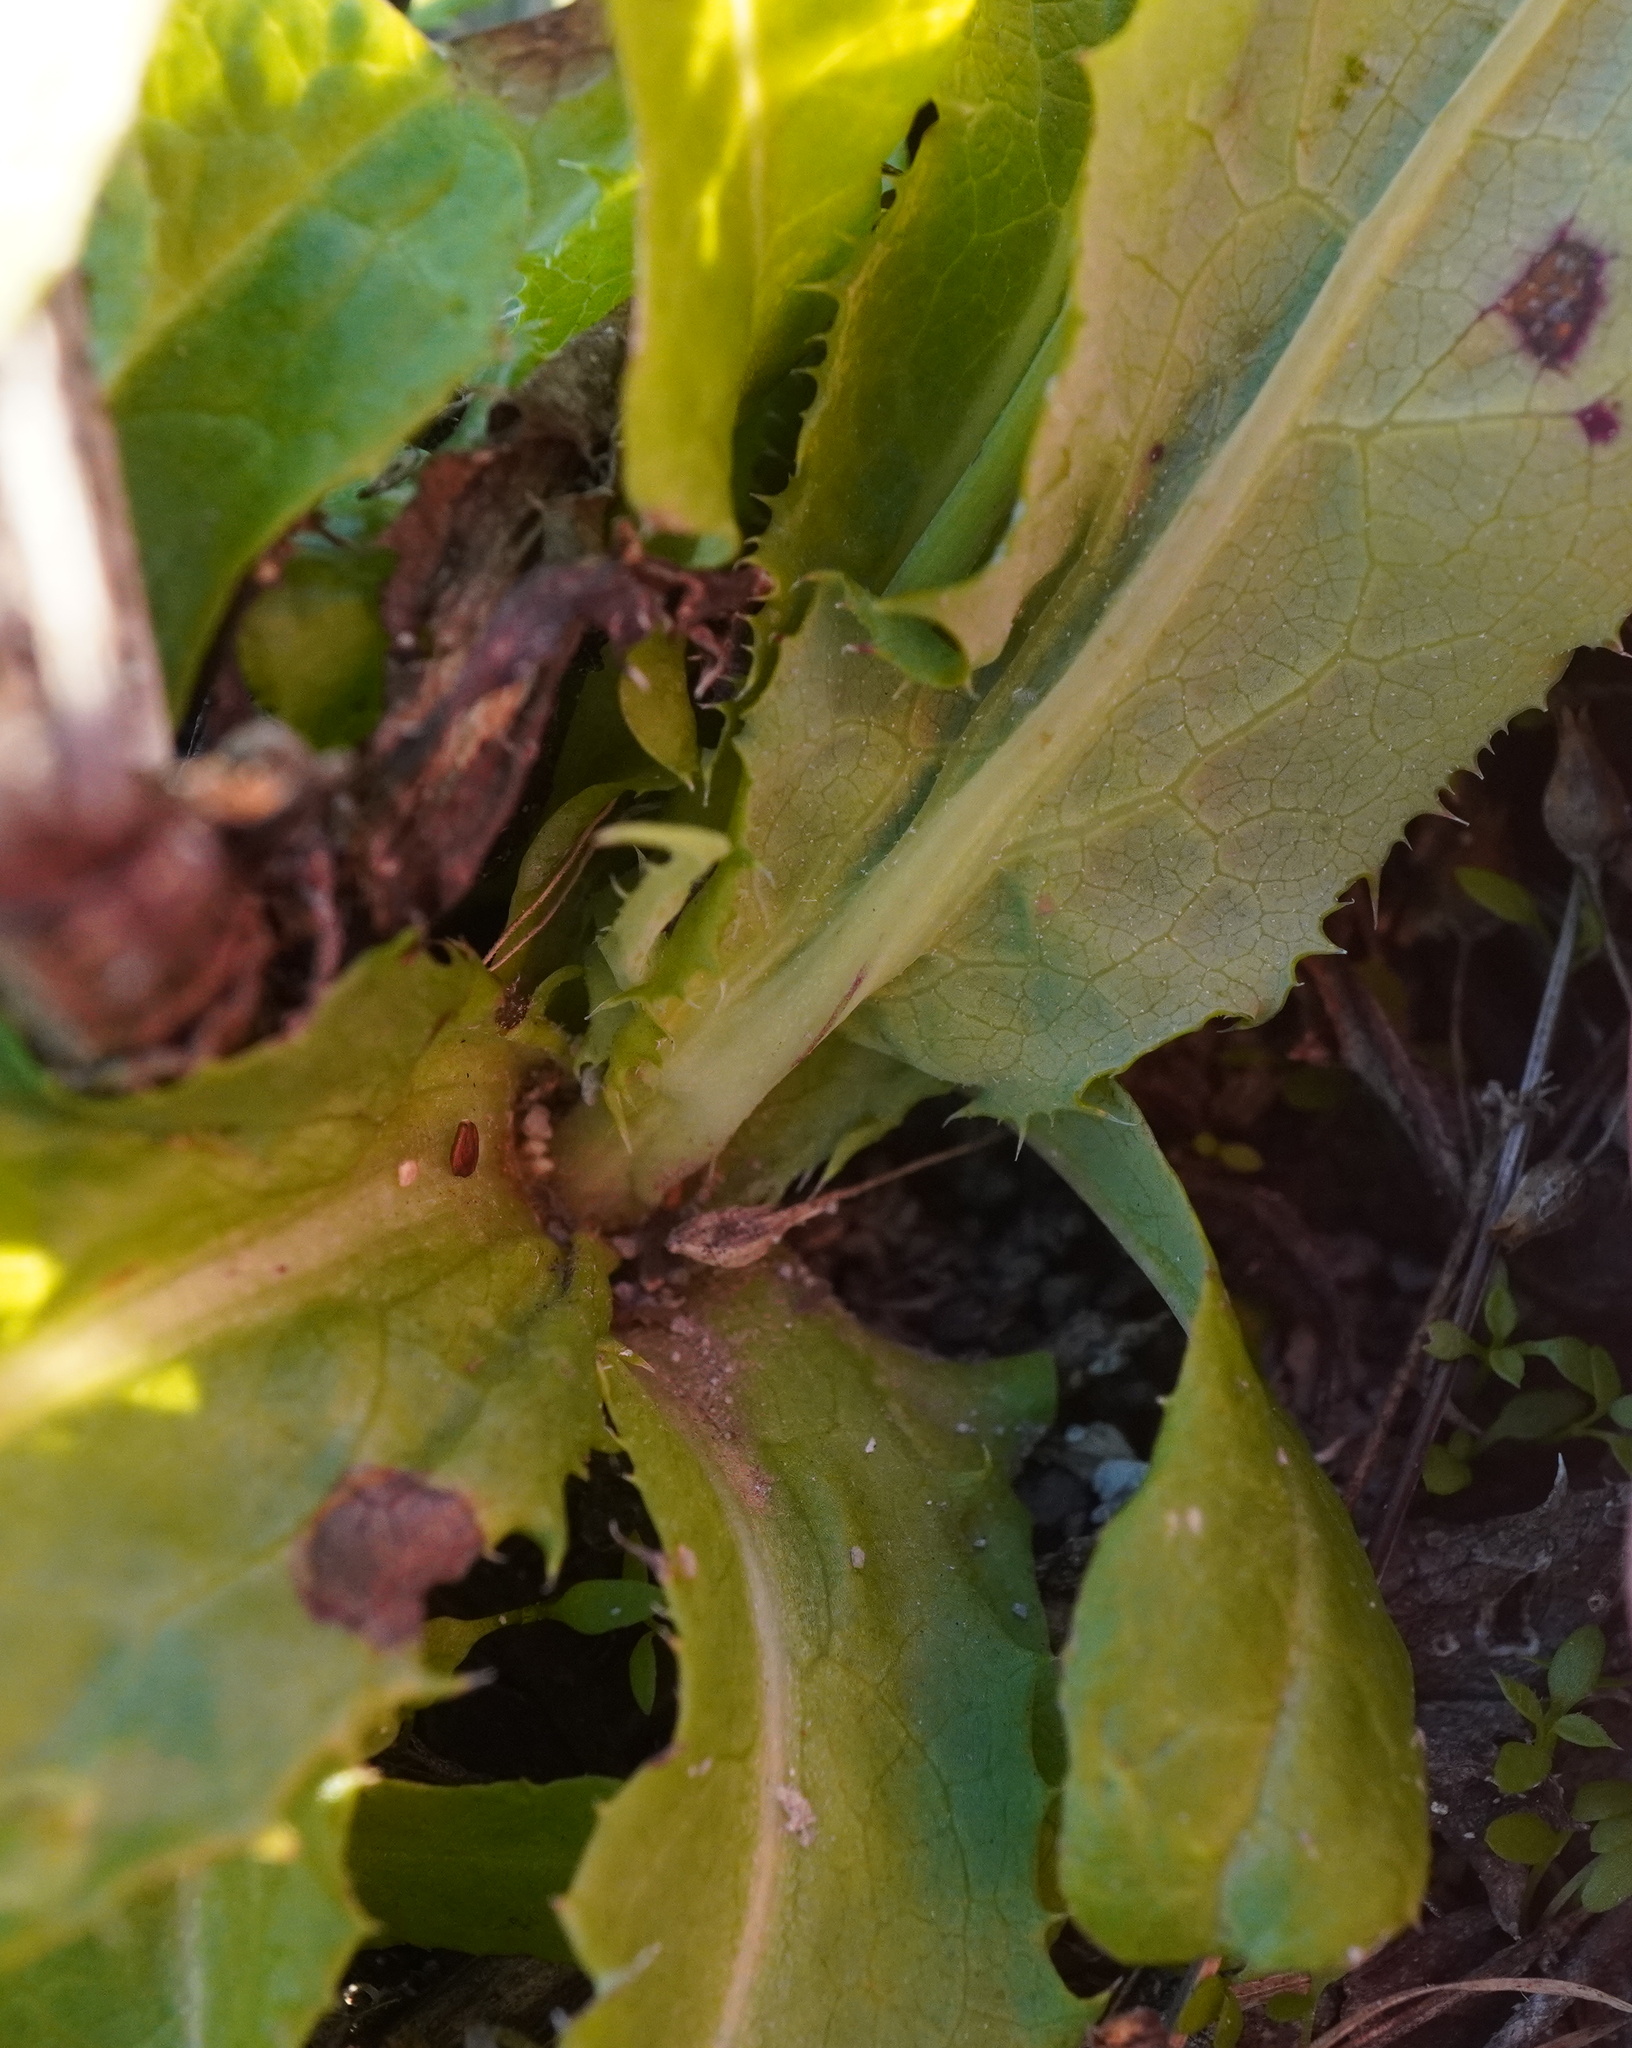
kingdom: Plantae
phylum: Tracheophyta
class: Magnoliopsida
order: Asterales
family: Asteraceae
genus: Sonchus
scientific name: Sonchus arvensis
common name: Perennial sow-thistle
